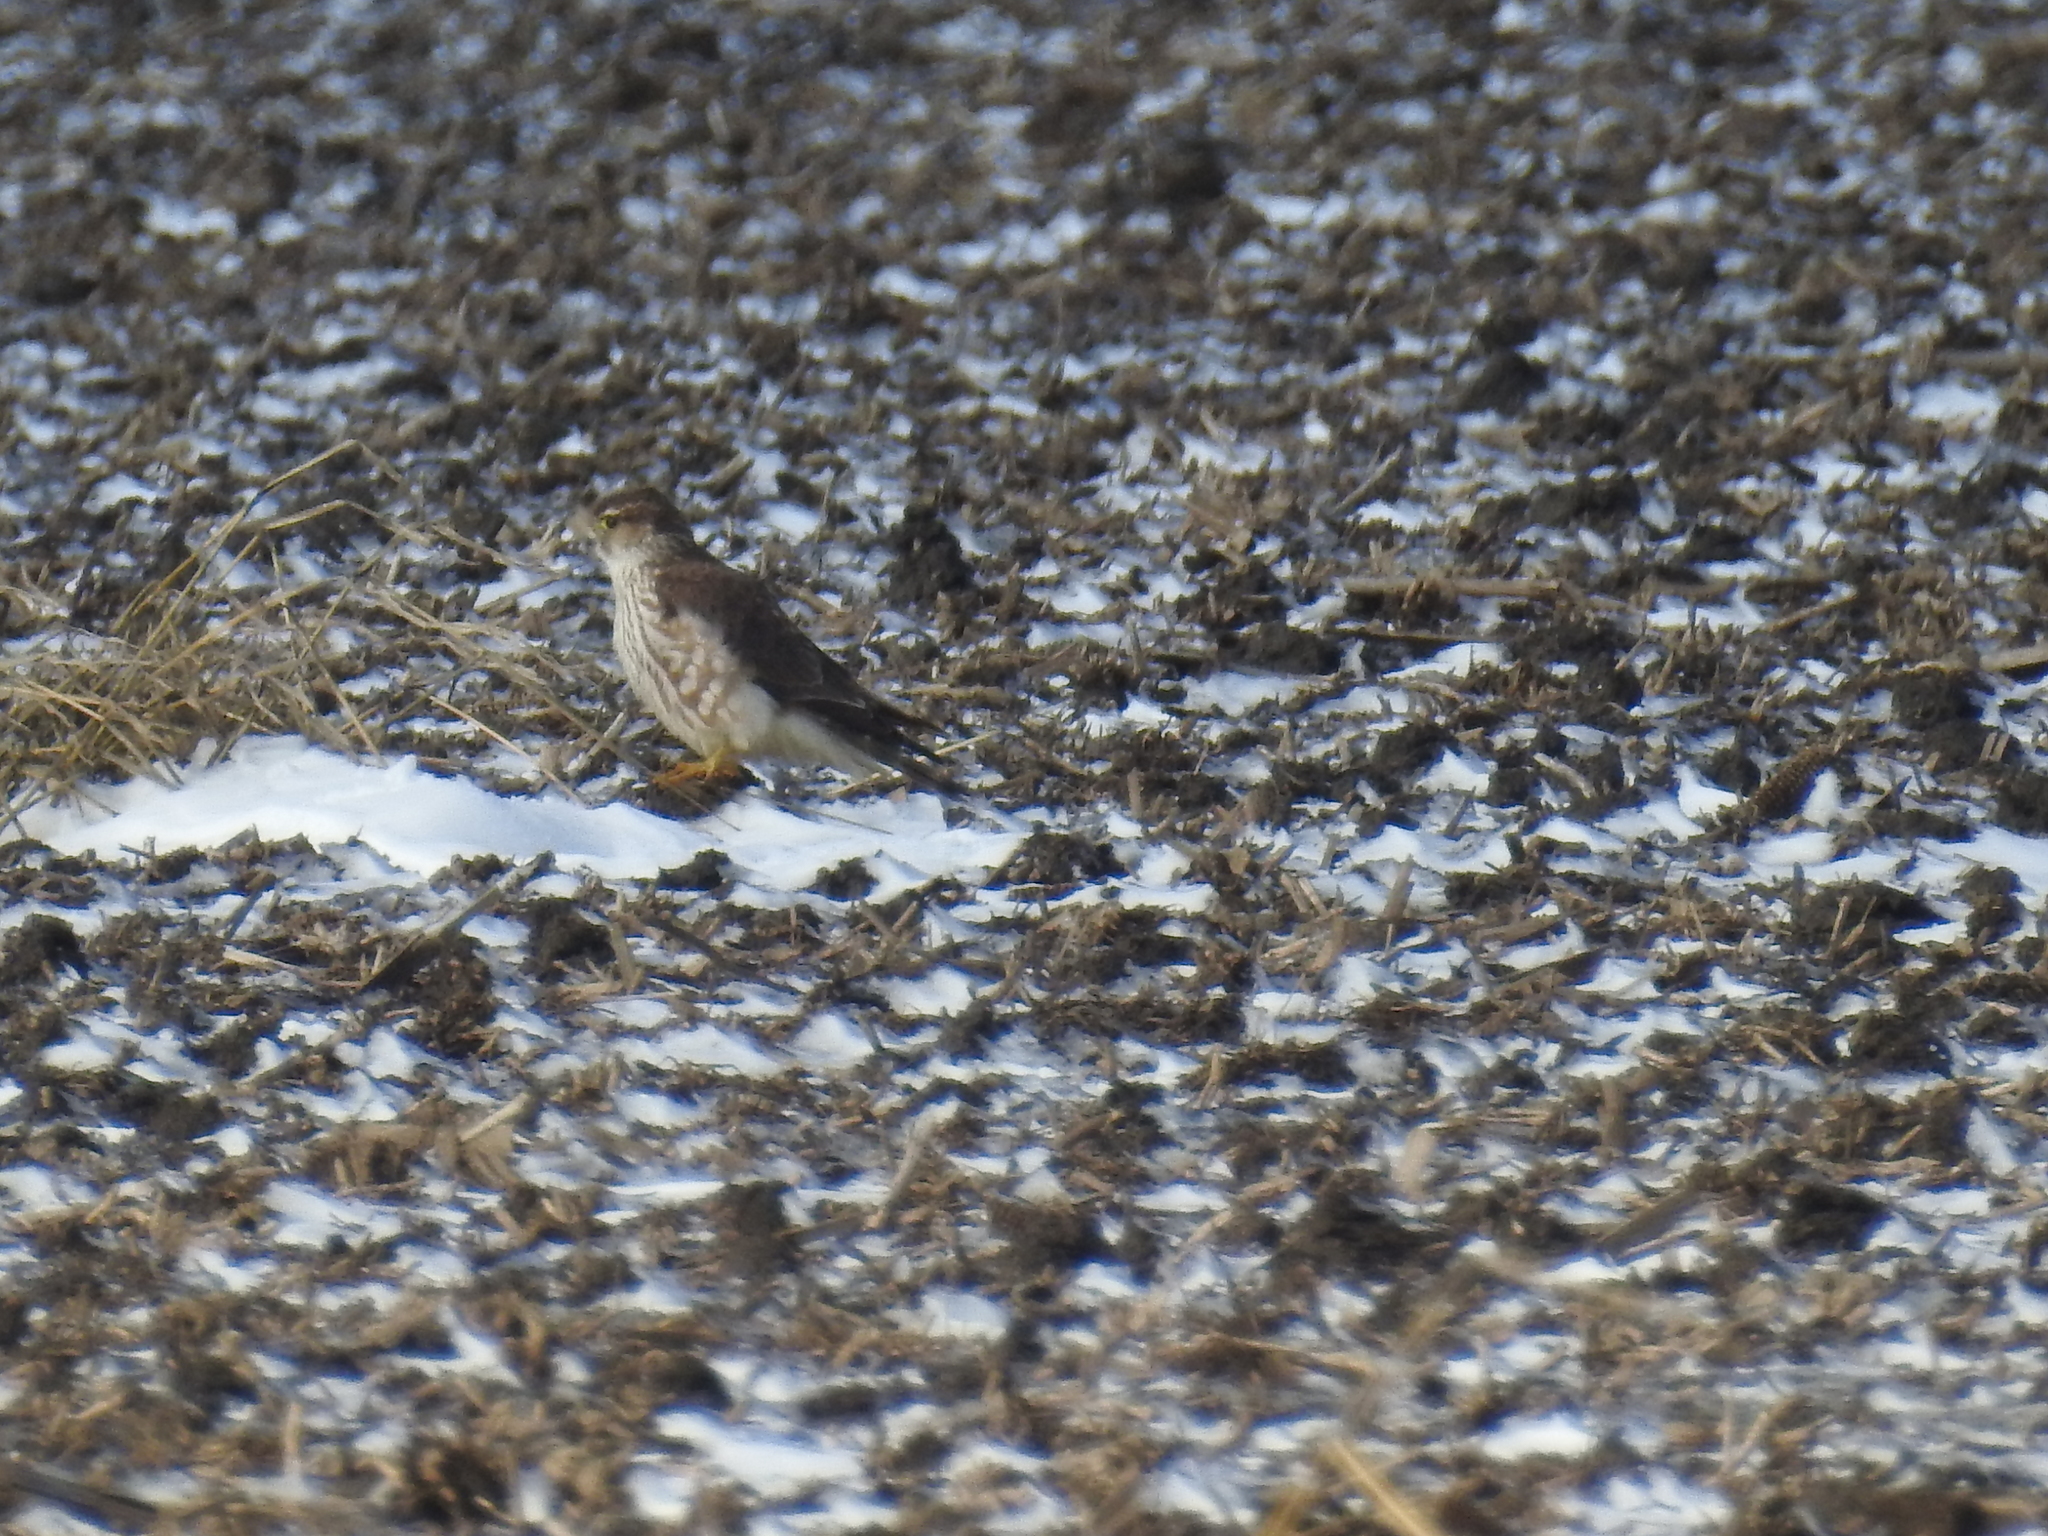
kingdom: Animalia
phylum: Chordata
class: Aves
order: Falconiformes
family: Falconidae
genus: Falco
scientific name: Falco columbarius
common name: Merlin
